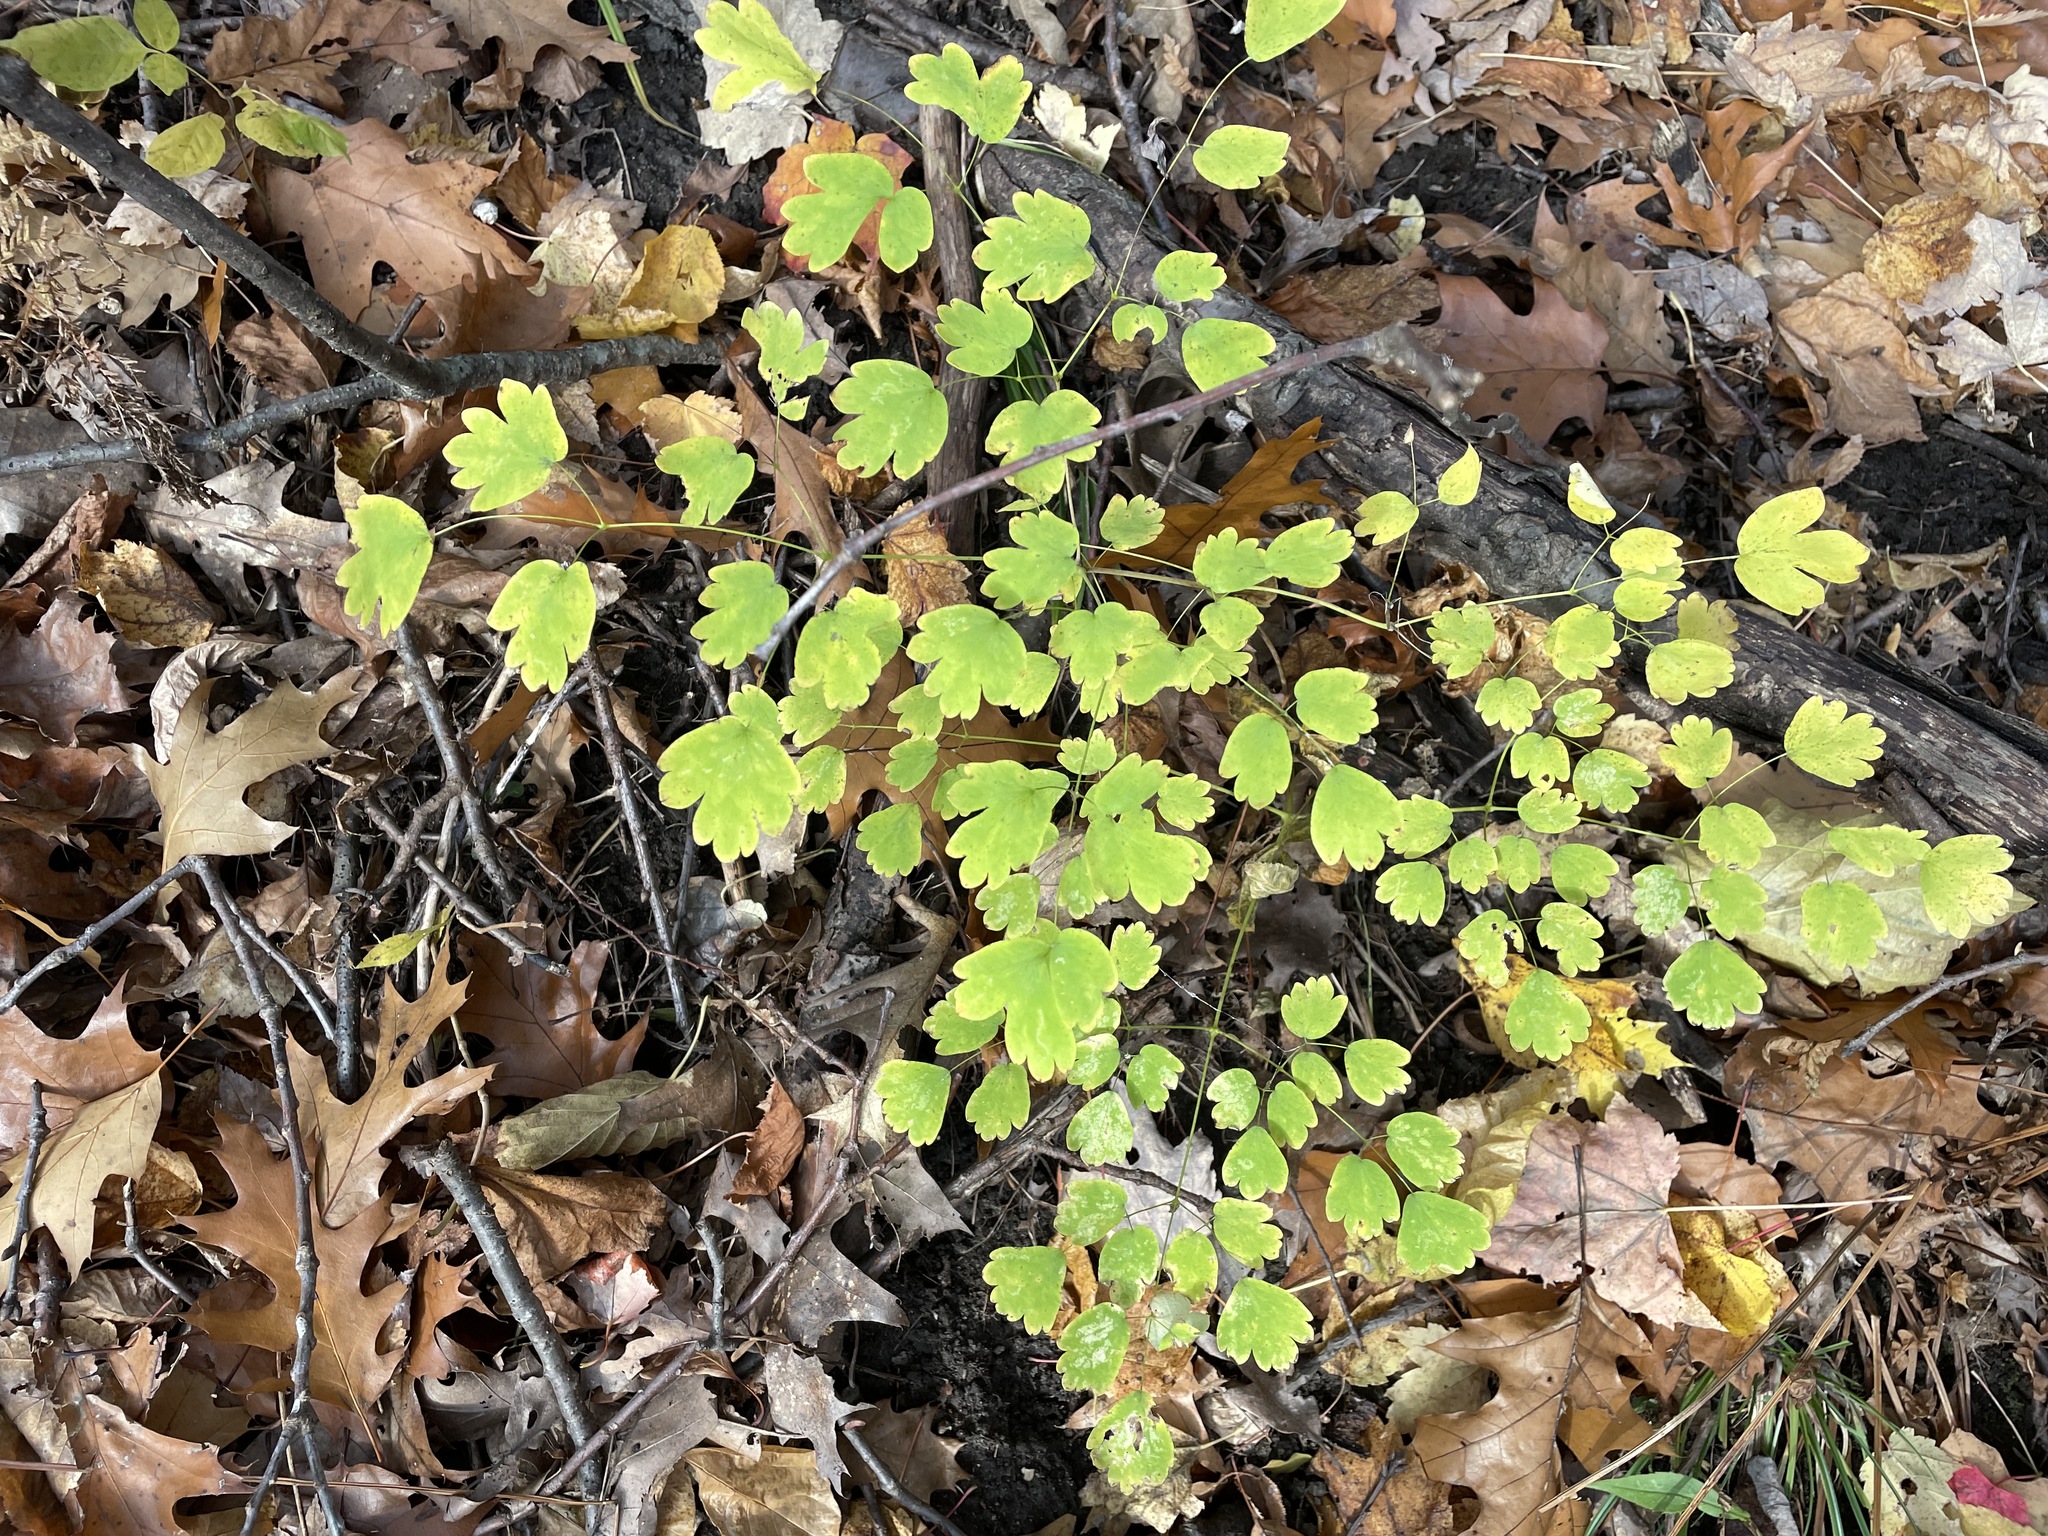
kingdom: Plantae
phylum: Tracheophyta
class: Magnoliopsida
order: Ranunculales
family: Ranunculaceae
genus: Thalictrum
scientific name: Thalictrum dioicum
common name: Early meadow-rue
